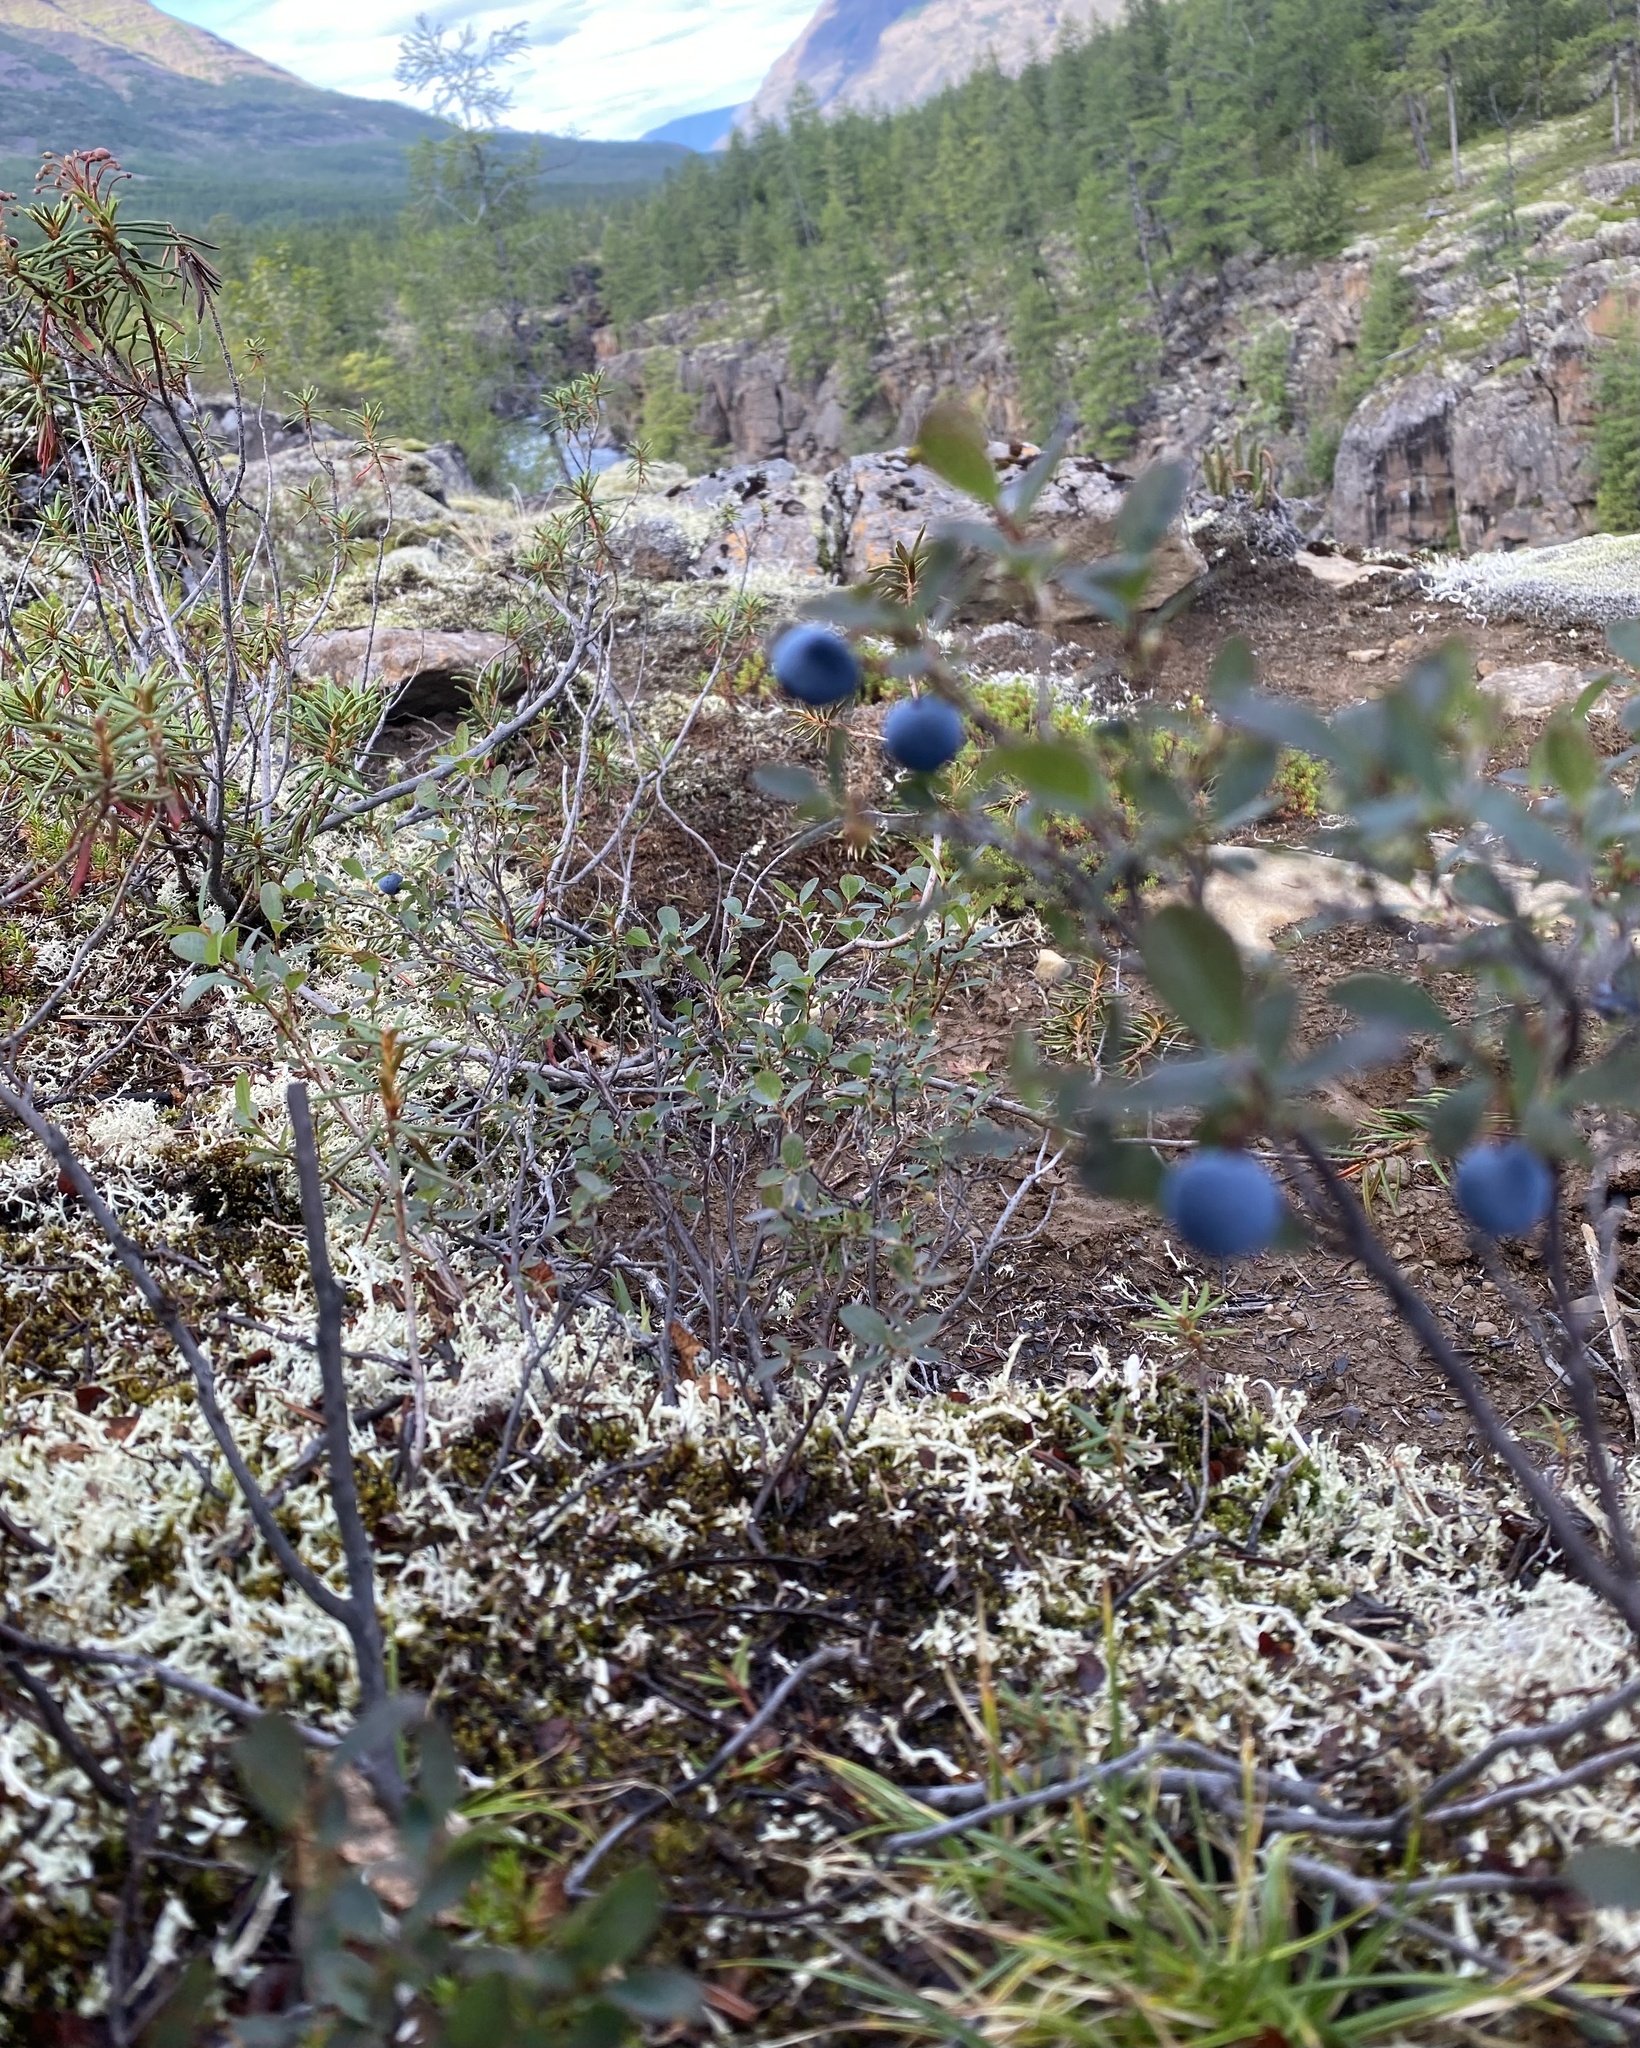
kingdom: Plantae
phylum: Tracheophyta
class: Magnoliopsida
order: Ericales
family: Ericaceae
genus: Vaccinium
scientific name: Vaccinium uliginosum
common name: Bog bilberry
